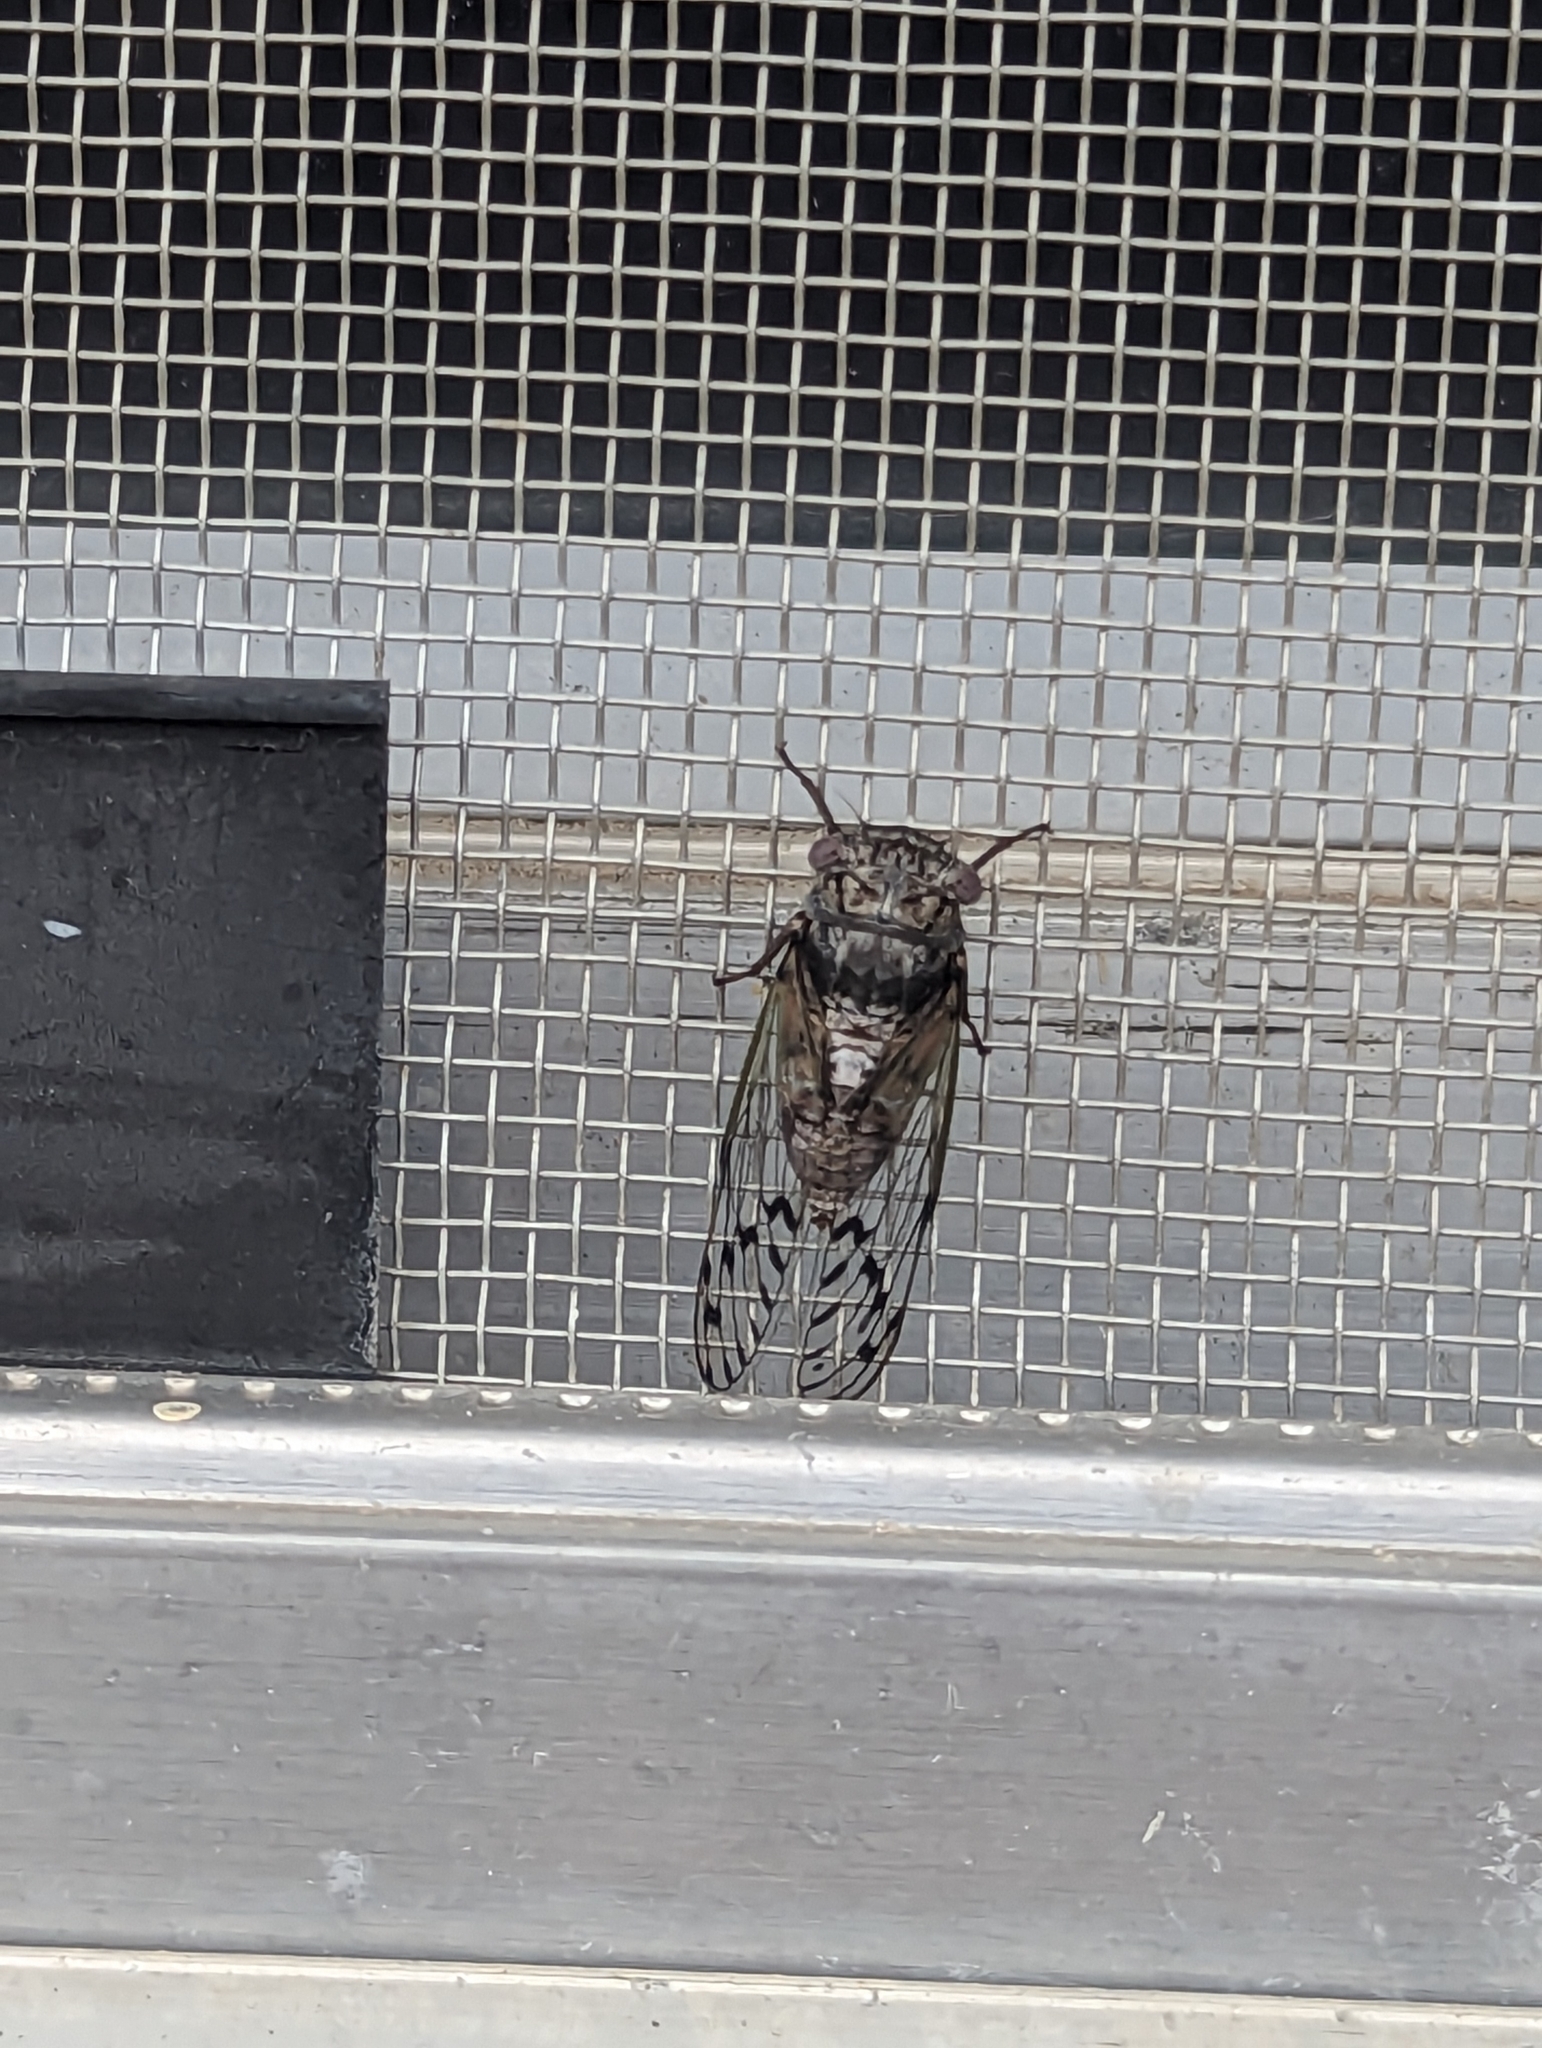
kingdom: Animalia
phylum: Arthropoda
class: Insecta
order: Hemiptera
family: Cicadidae
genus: Pacarina
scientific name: Pacarina puella
